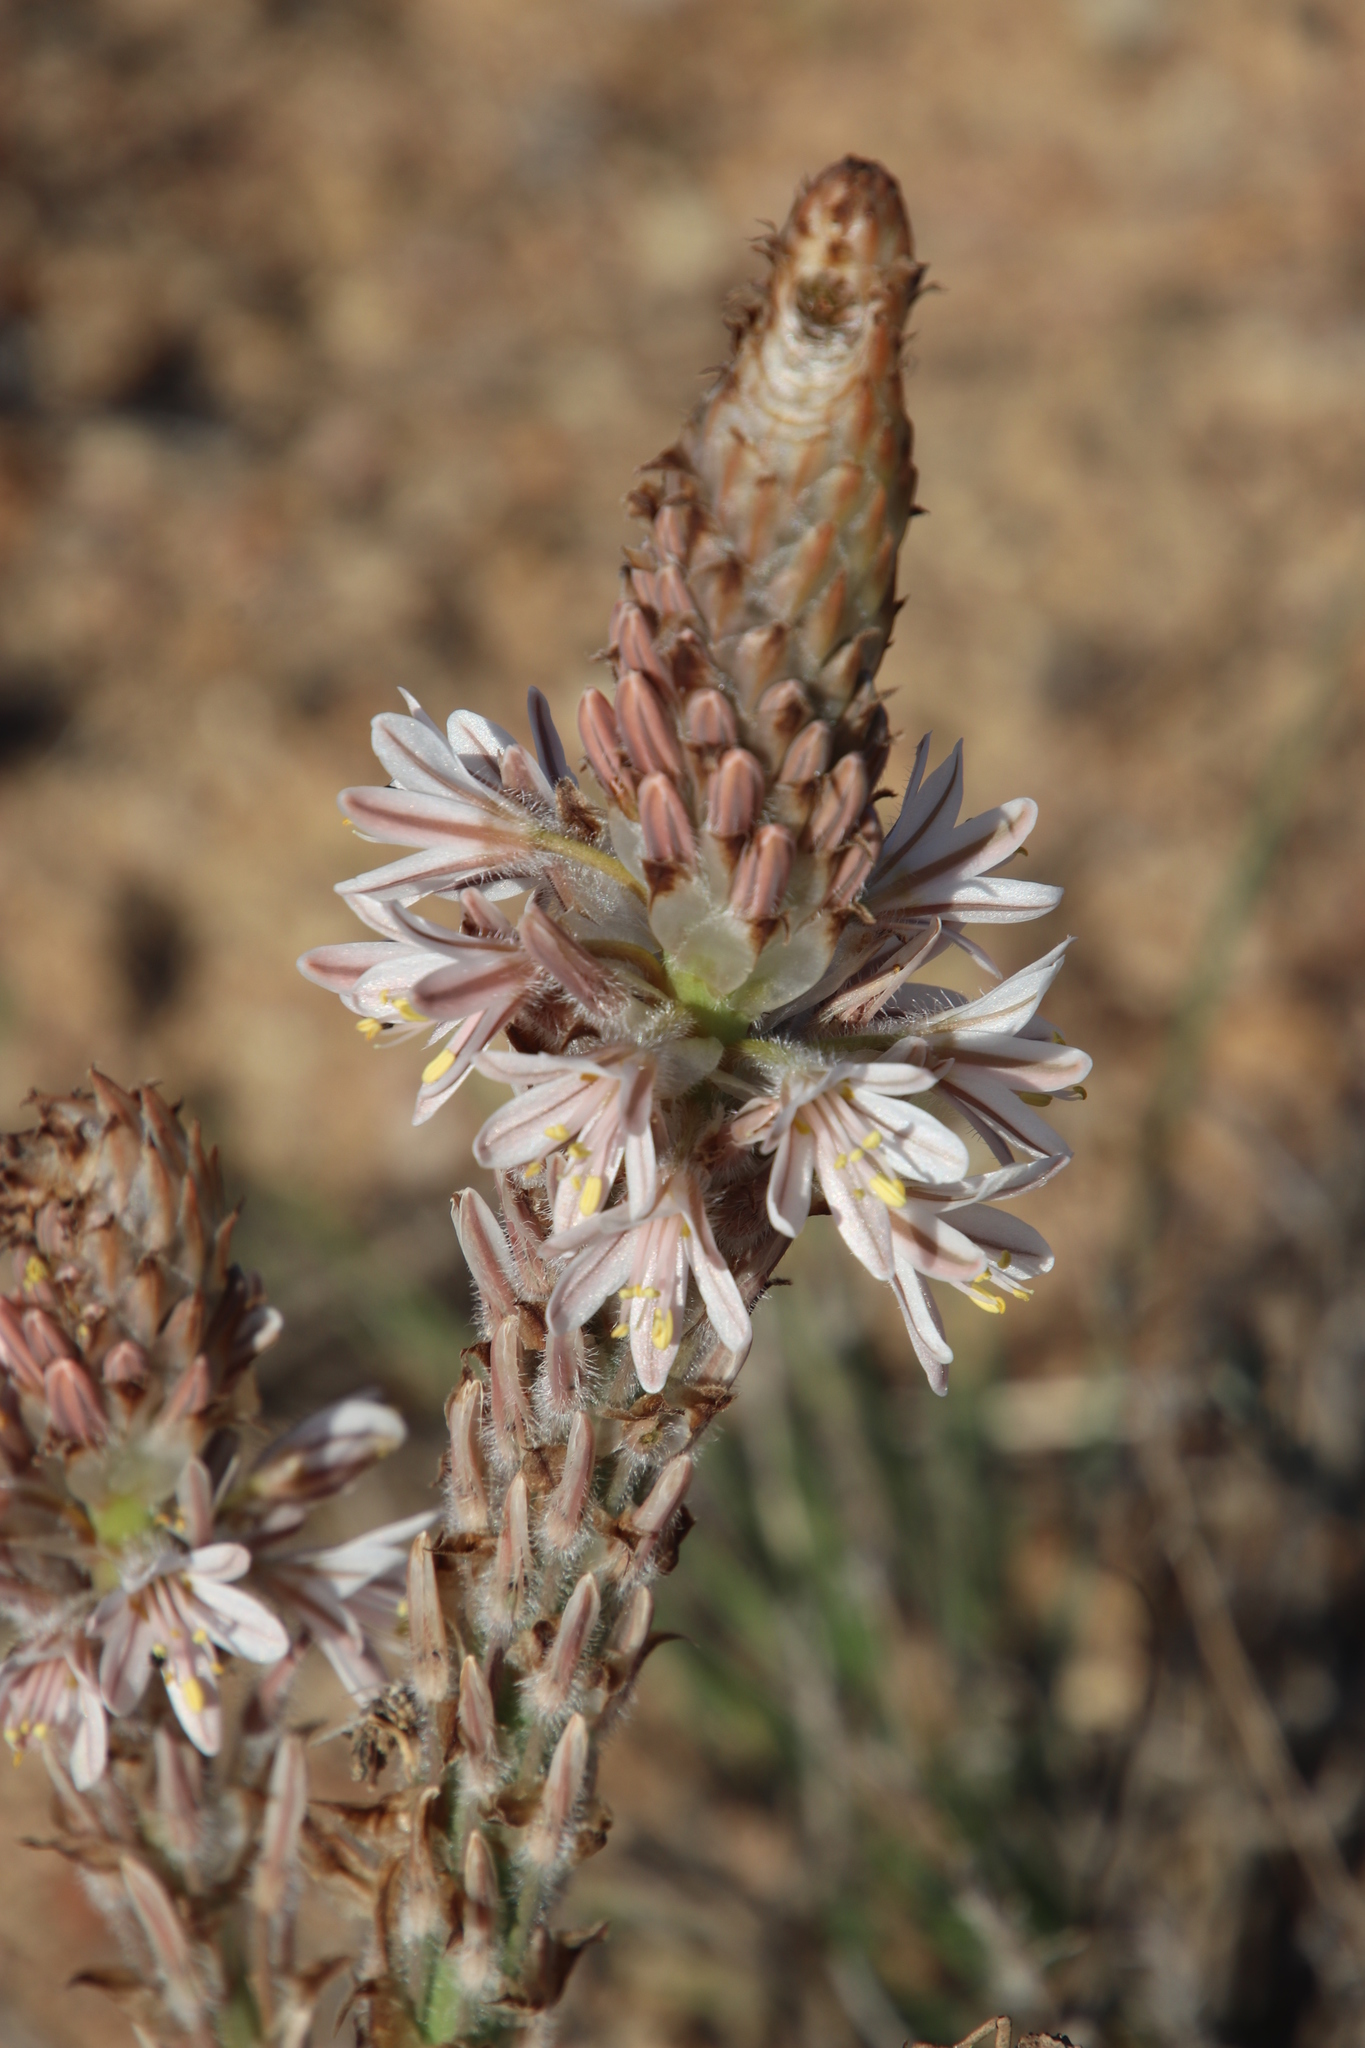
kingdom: Plantae
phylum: Tracheophyta
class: Liliopsida
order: Asparagales
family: Asphodelaceae
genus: Trachyandra
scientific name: Trachyandra falcata
